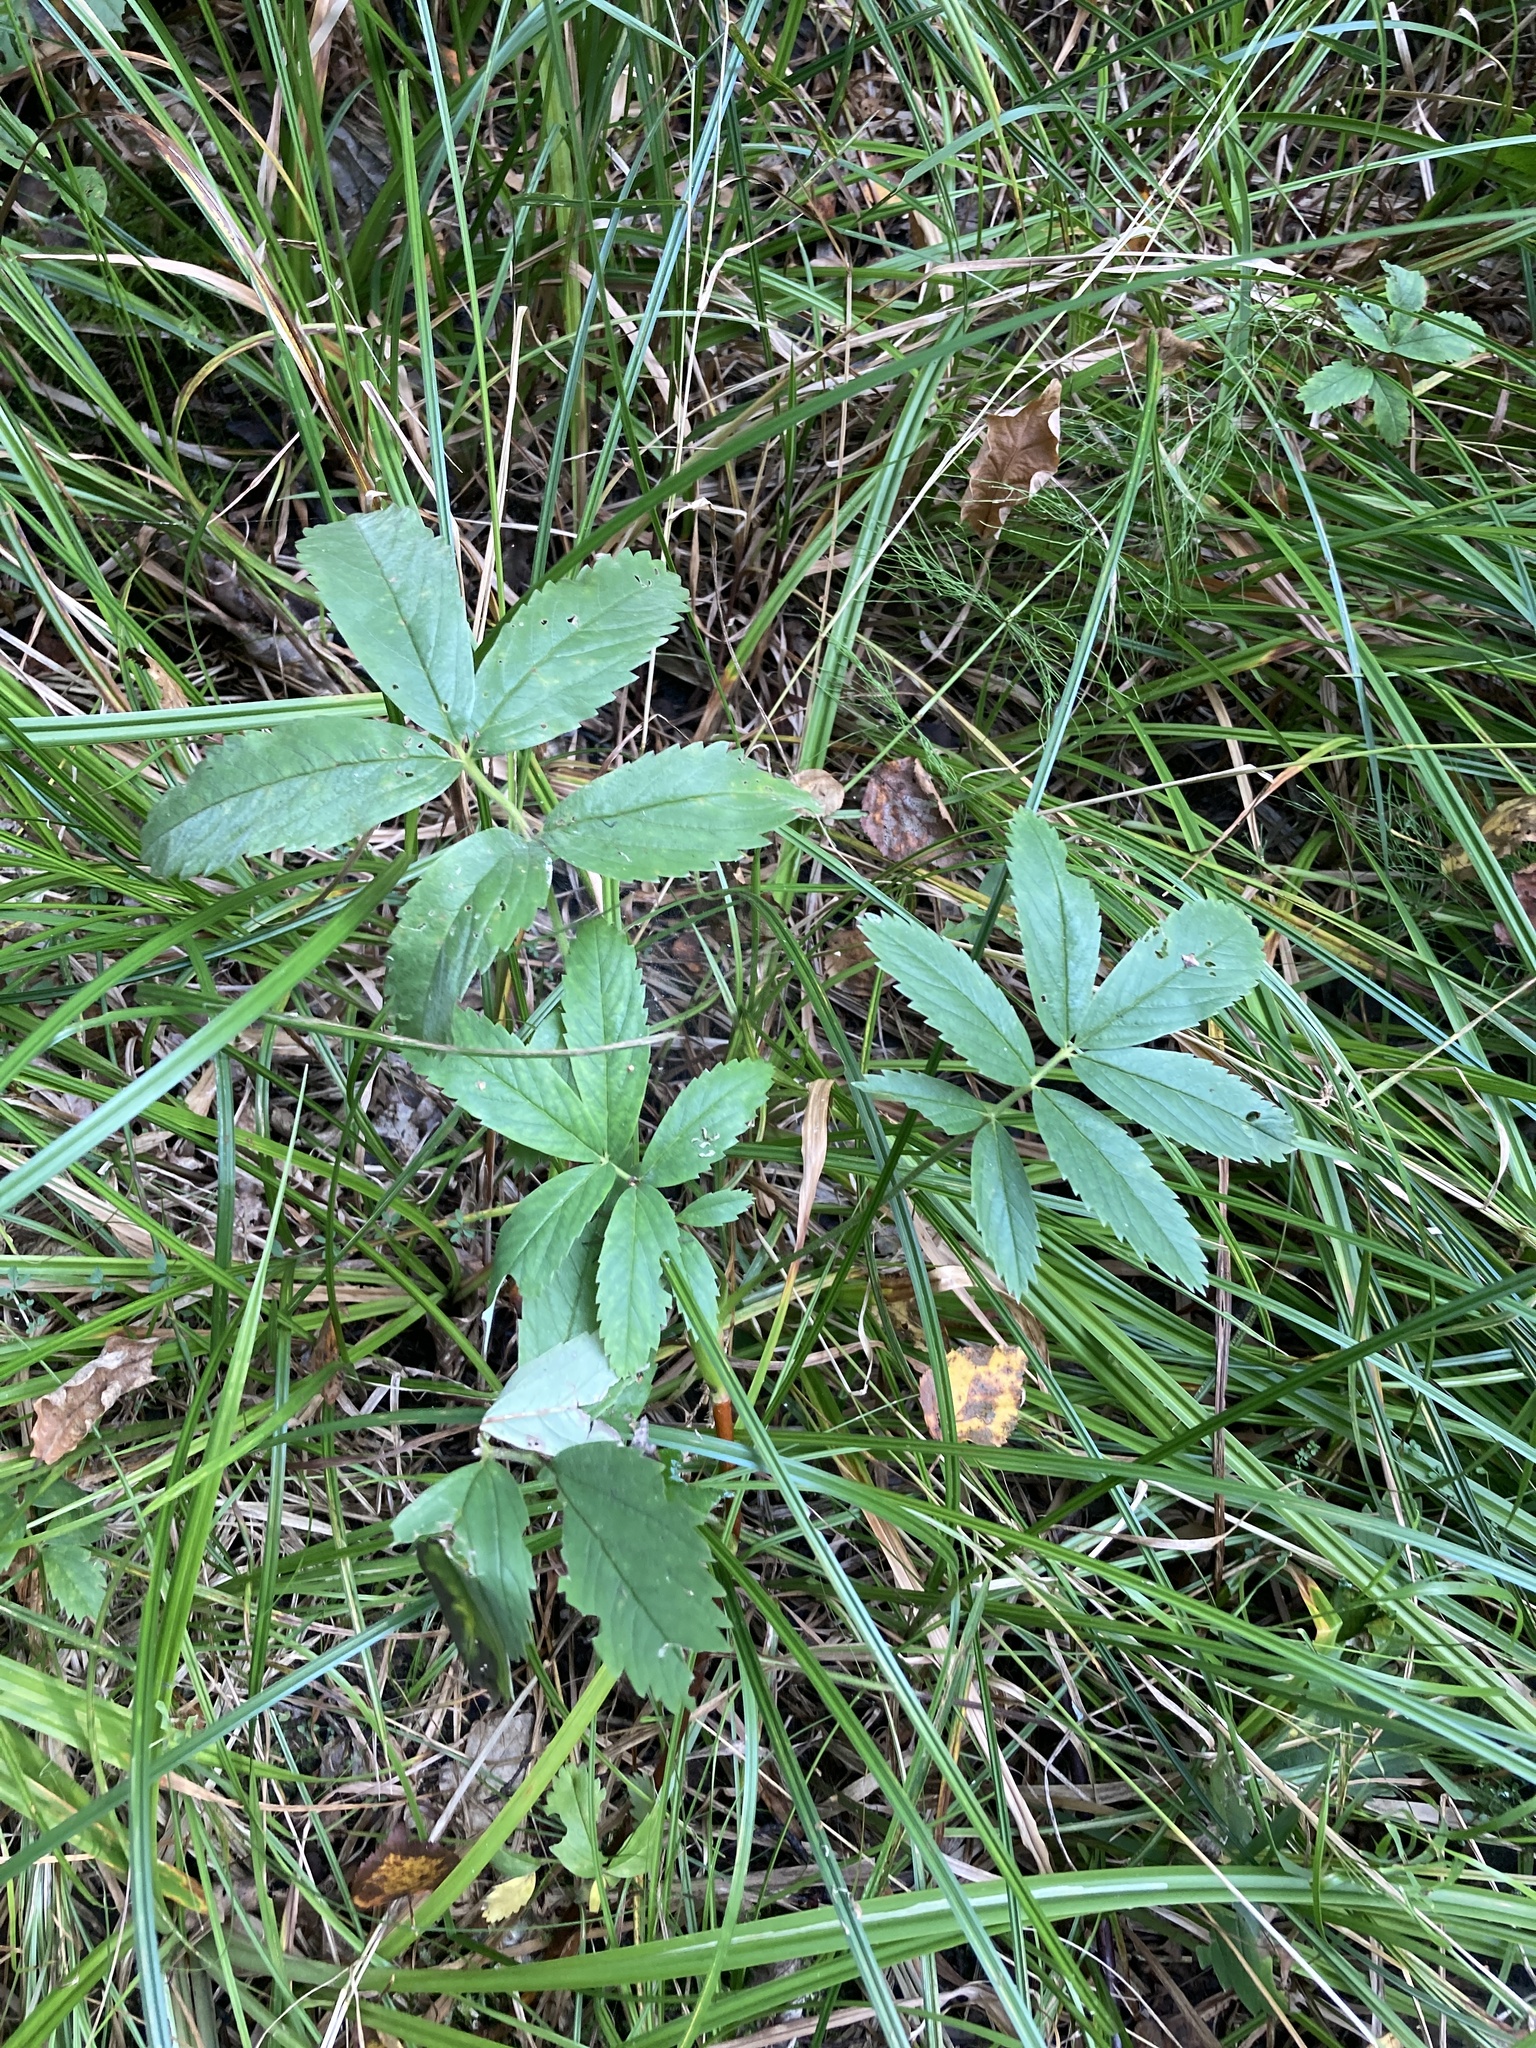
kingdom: Plantae
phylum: Tracheophyta
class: Magnoliopsida
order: Rosales
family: Rosaceae
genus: Comarum
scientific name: Comarum palustre
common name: Marsh cinquefoil
